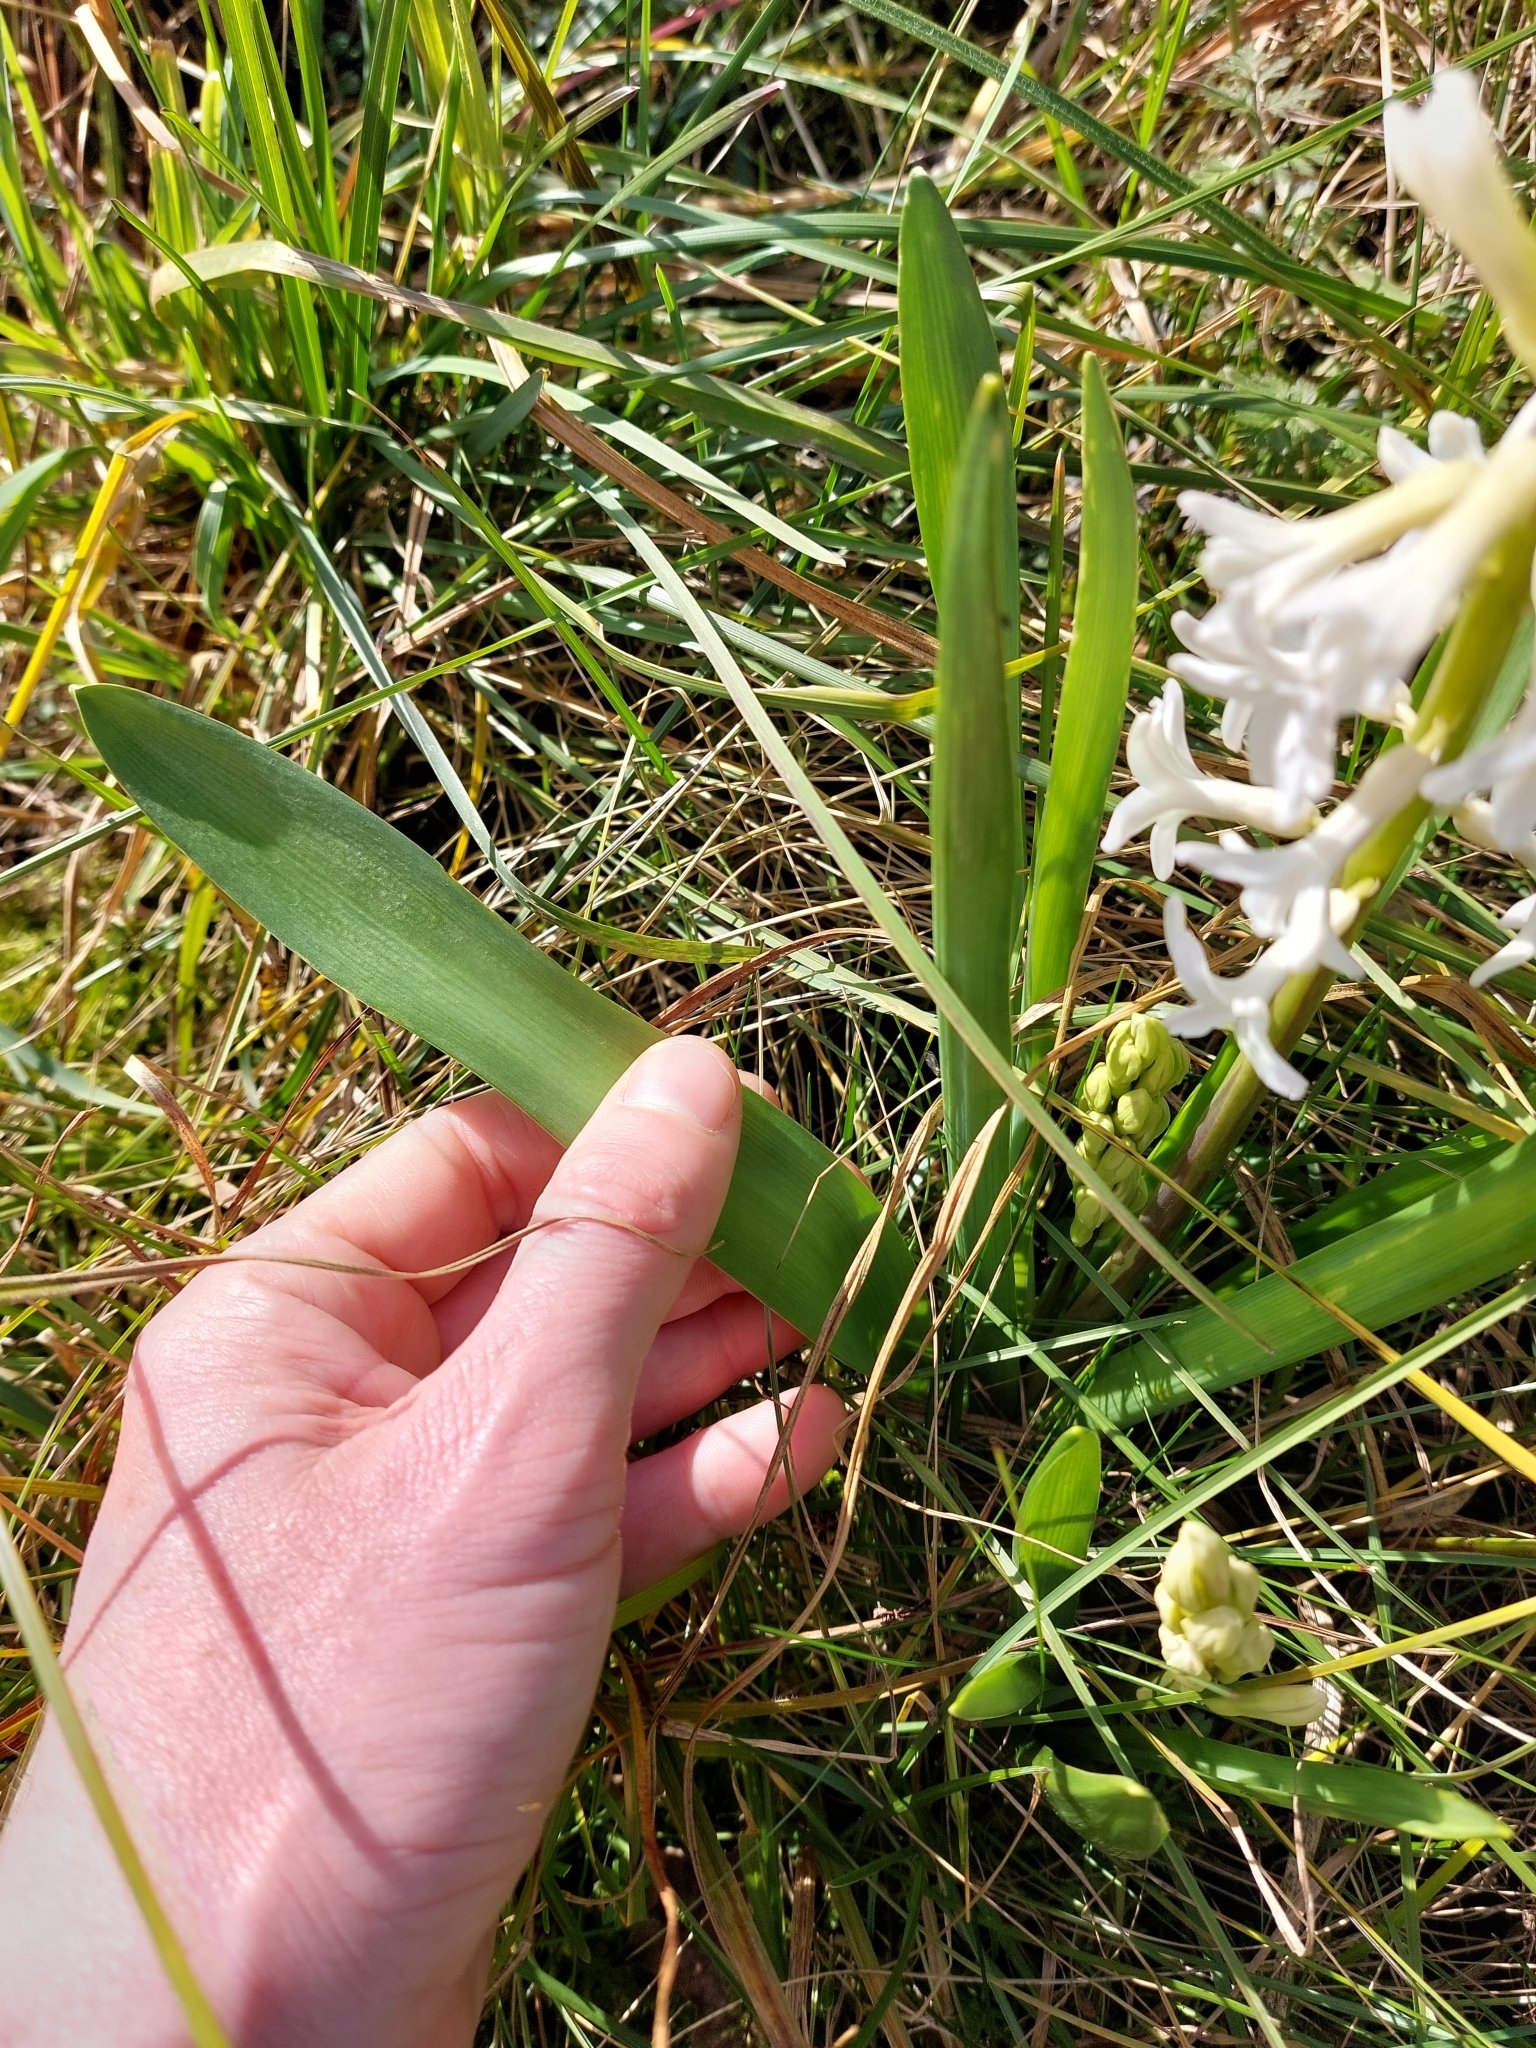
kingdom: Plantae
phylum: Tracheophyta
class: Liliopsida
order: Asparagales
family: Asparagaceae
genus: Hyacinthus
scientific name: Hyacinthus orientalis
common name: Hyacinth
